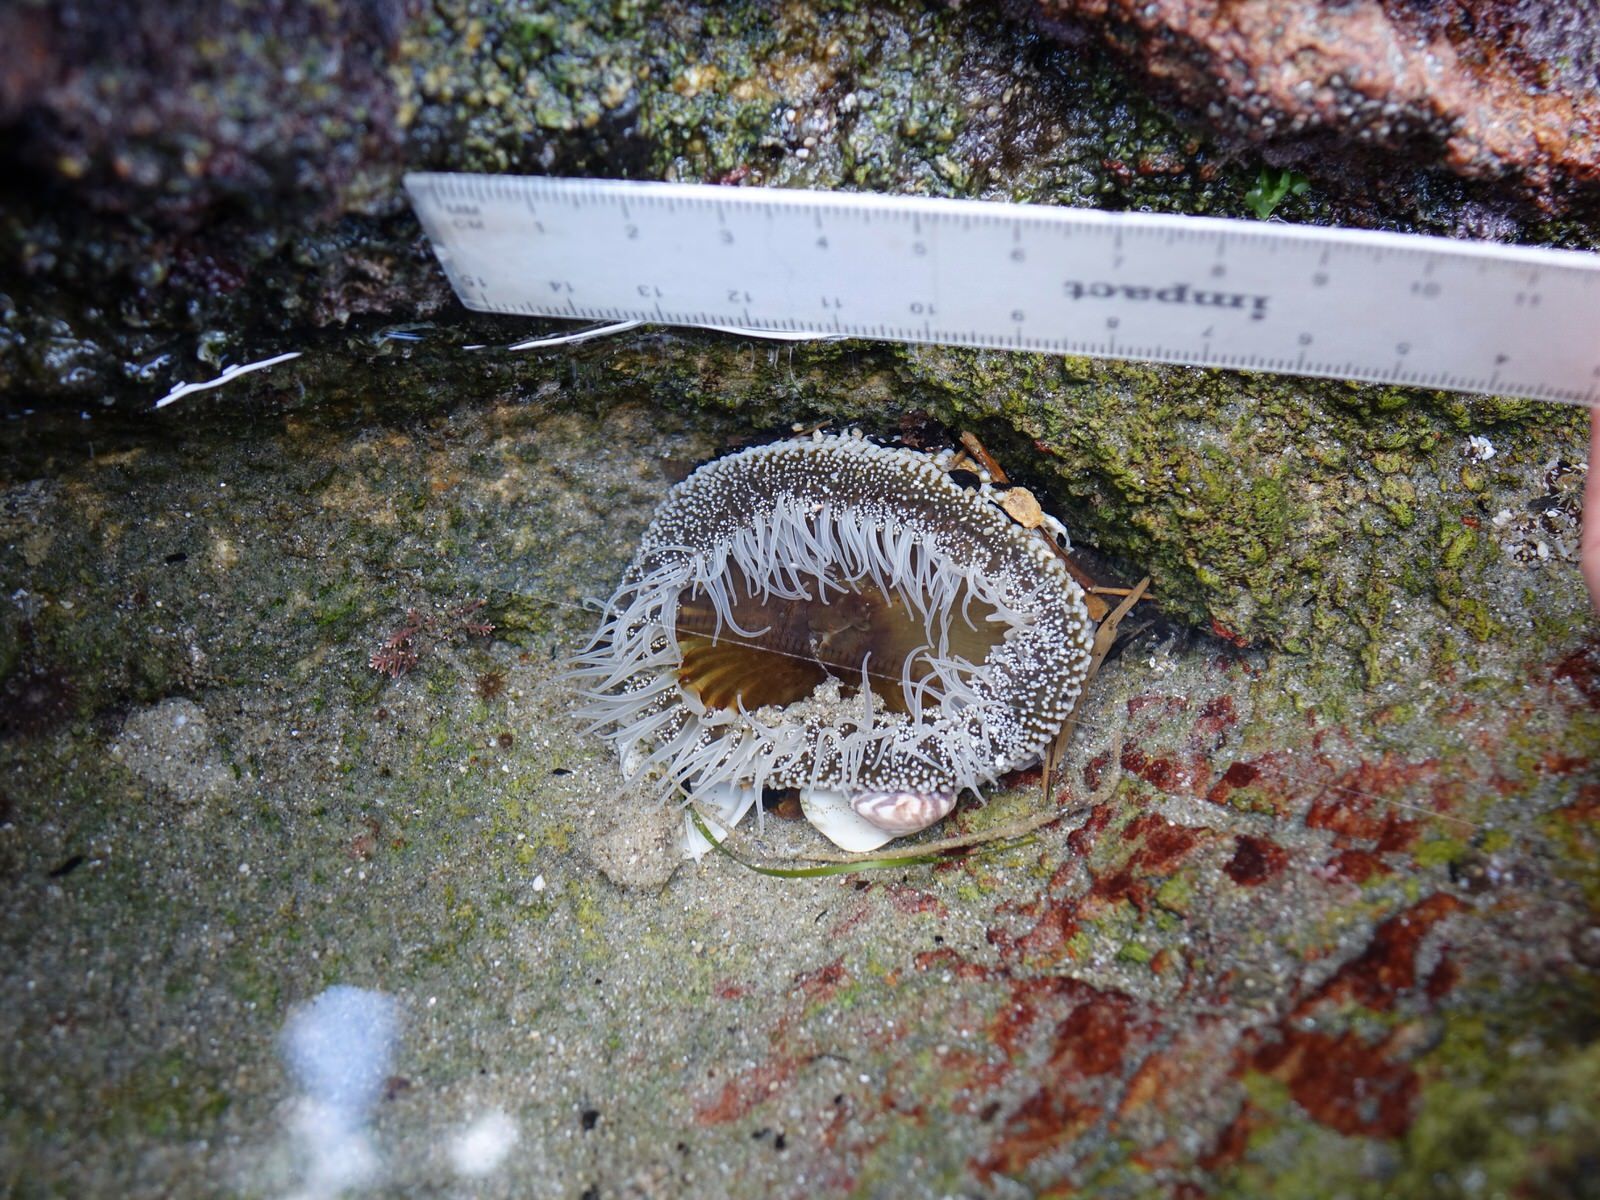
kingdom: Animalia
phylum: Cnidaria
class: Anthozoa
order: Actiniaria
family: Actiniidae
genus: Oulactis
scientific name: Oulactis magna
